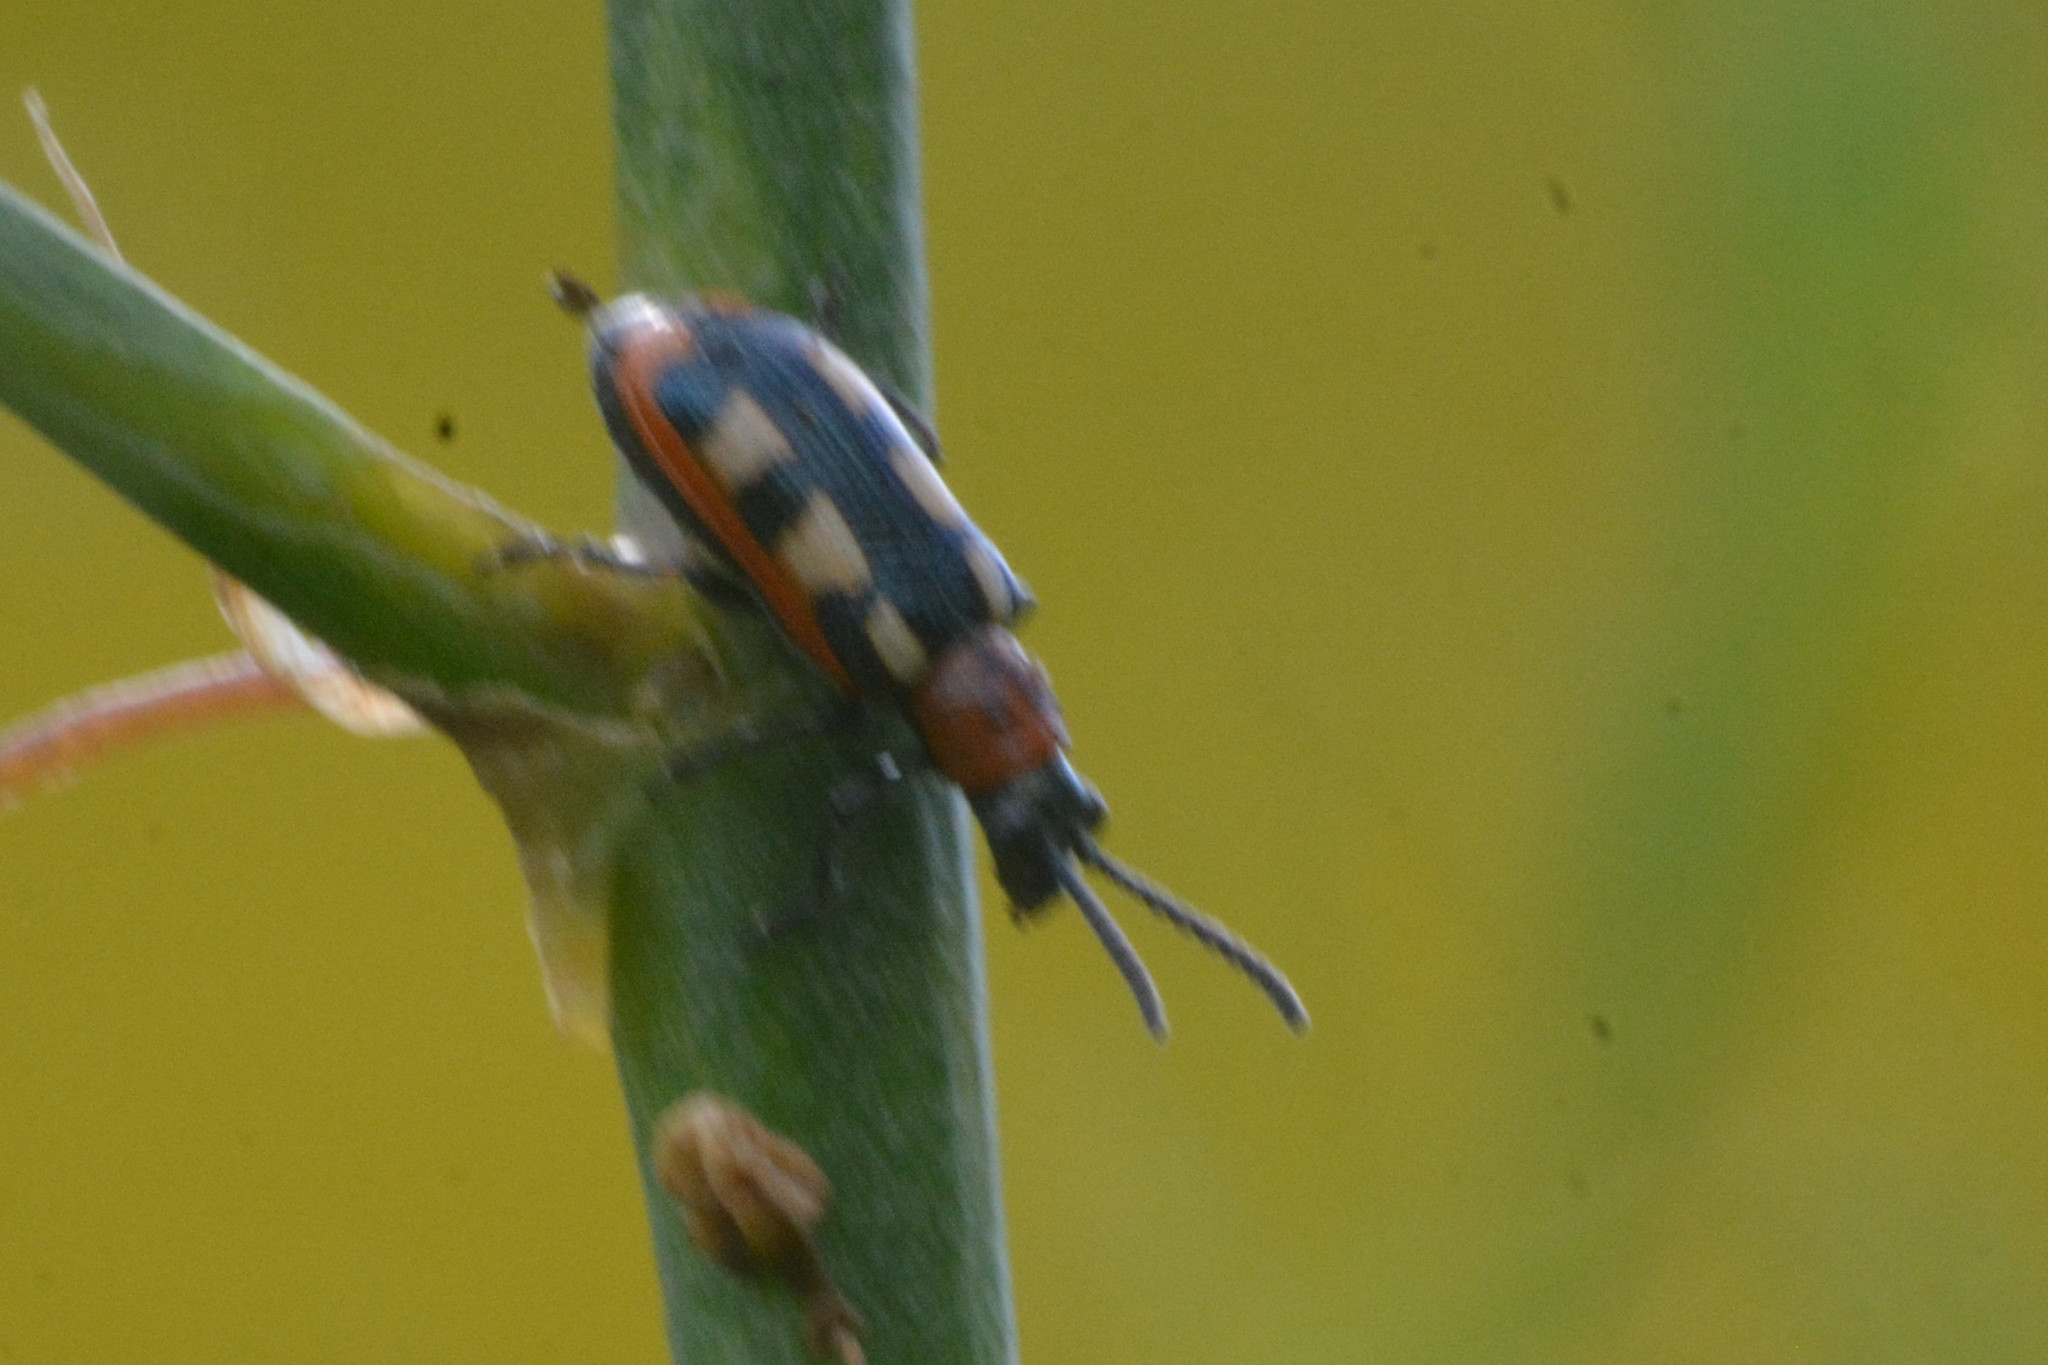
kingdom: Animalia
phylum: Arthropoda
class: Insecta
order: Coleoptera
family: Chrysomelidae
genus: Crioceris
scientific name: Crioceris asparagi
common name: Asparagus beetle
